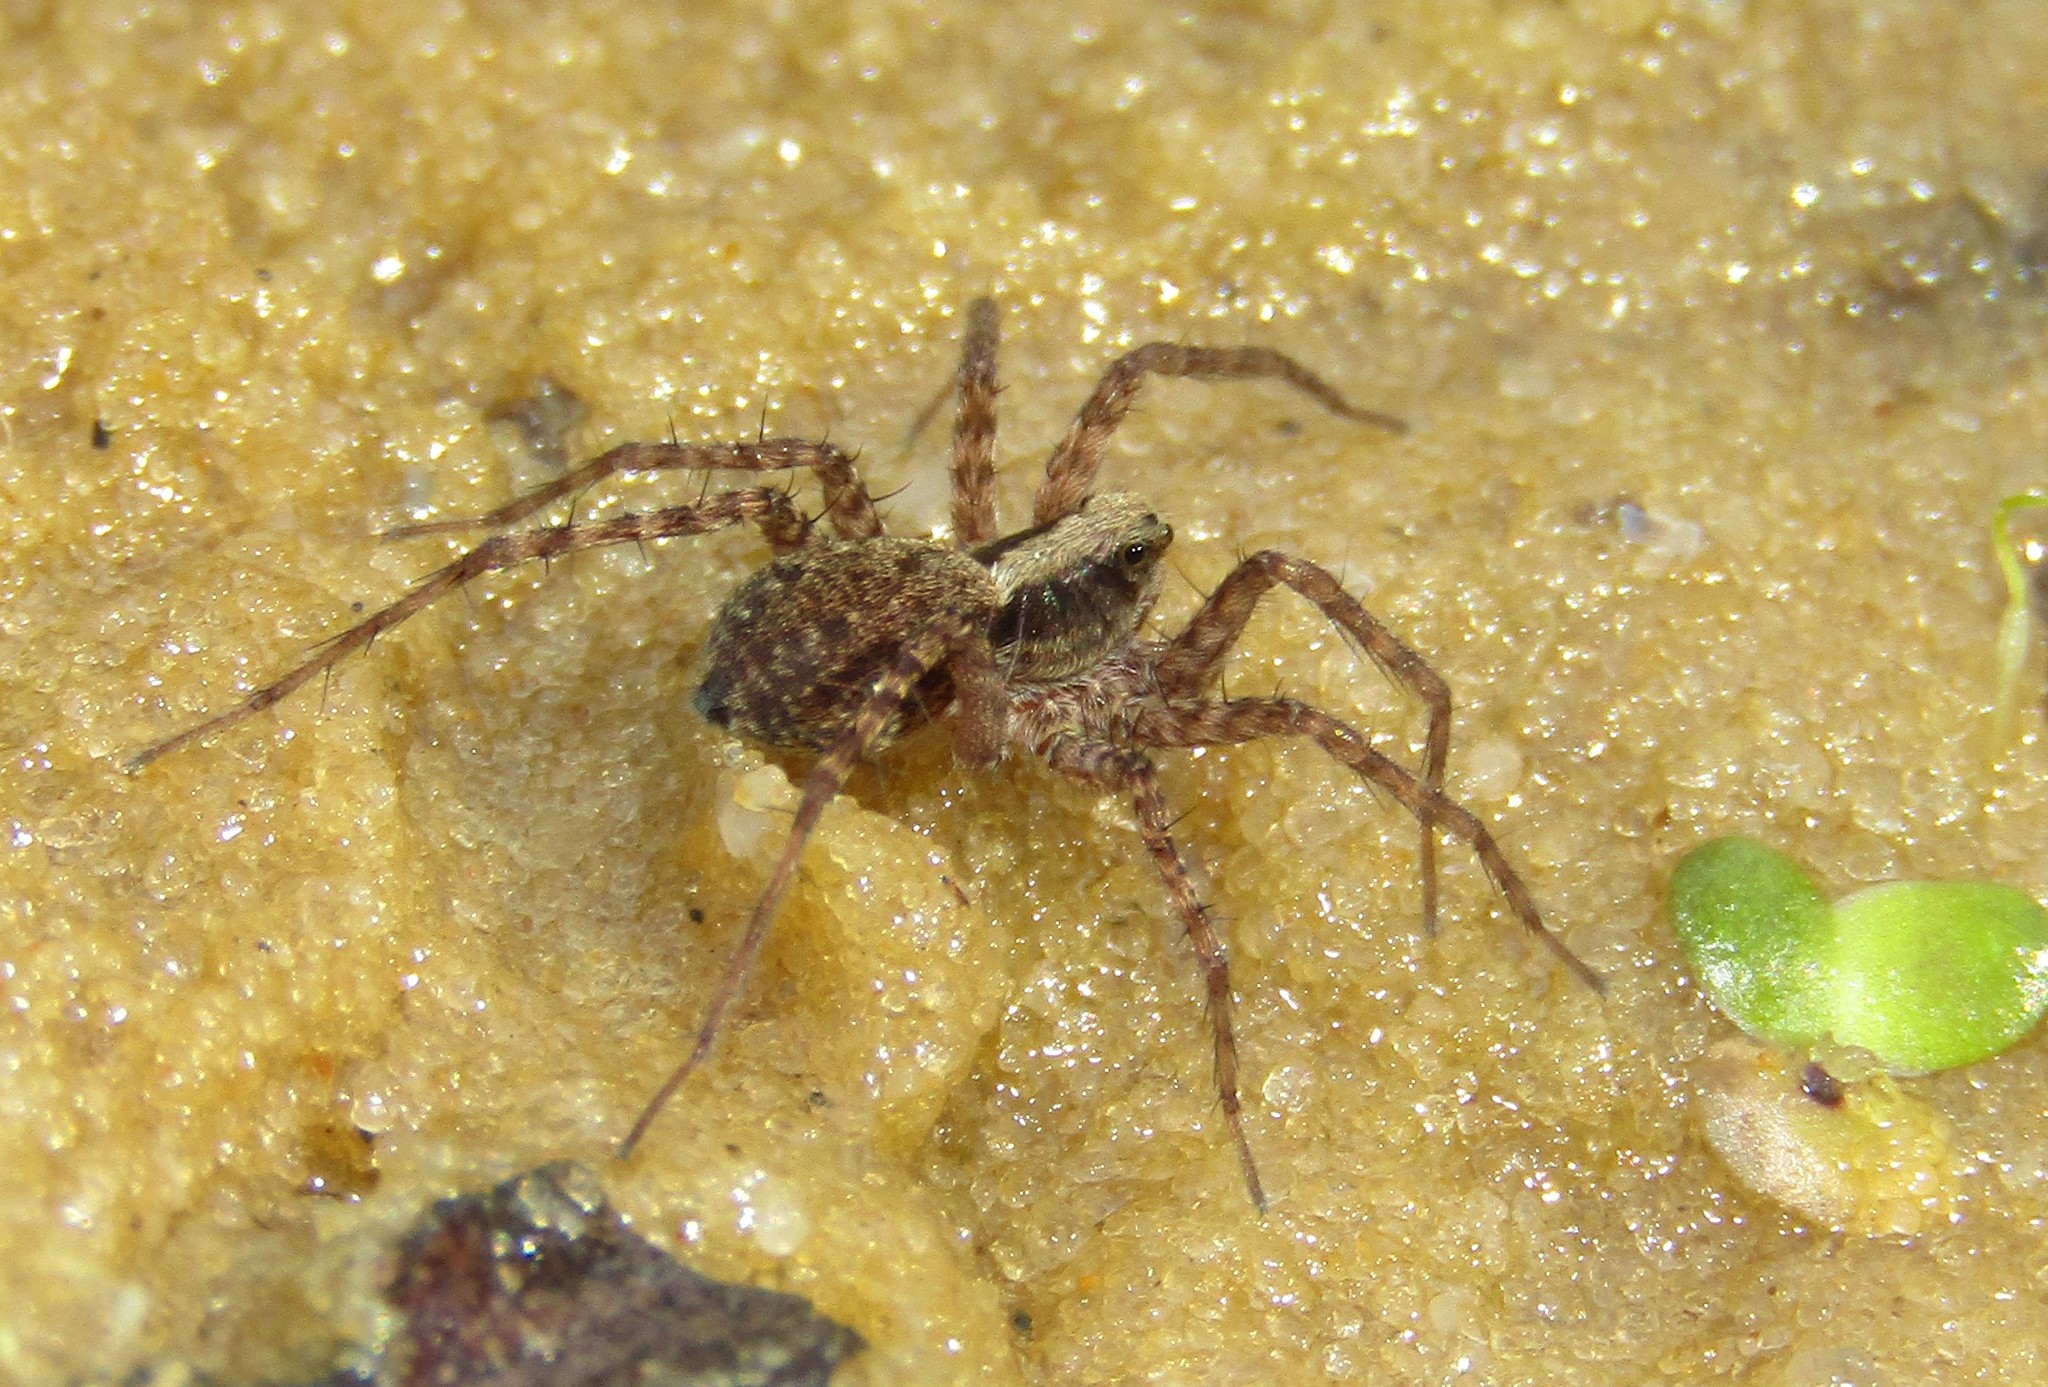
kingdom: Animalia
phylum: Arthropoda
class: Arachnida
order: Araneae
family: Lycosidae
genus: Pardosa
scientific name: Pardosa
